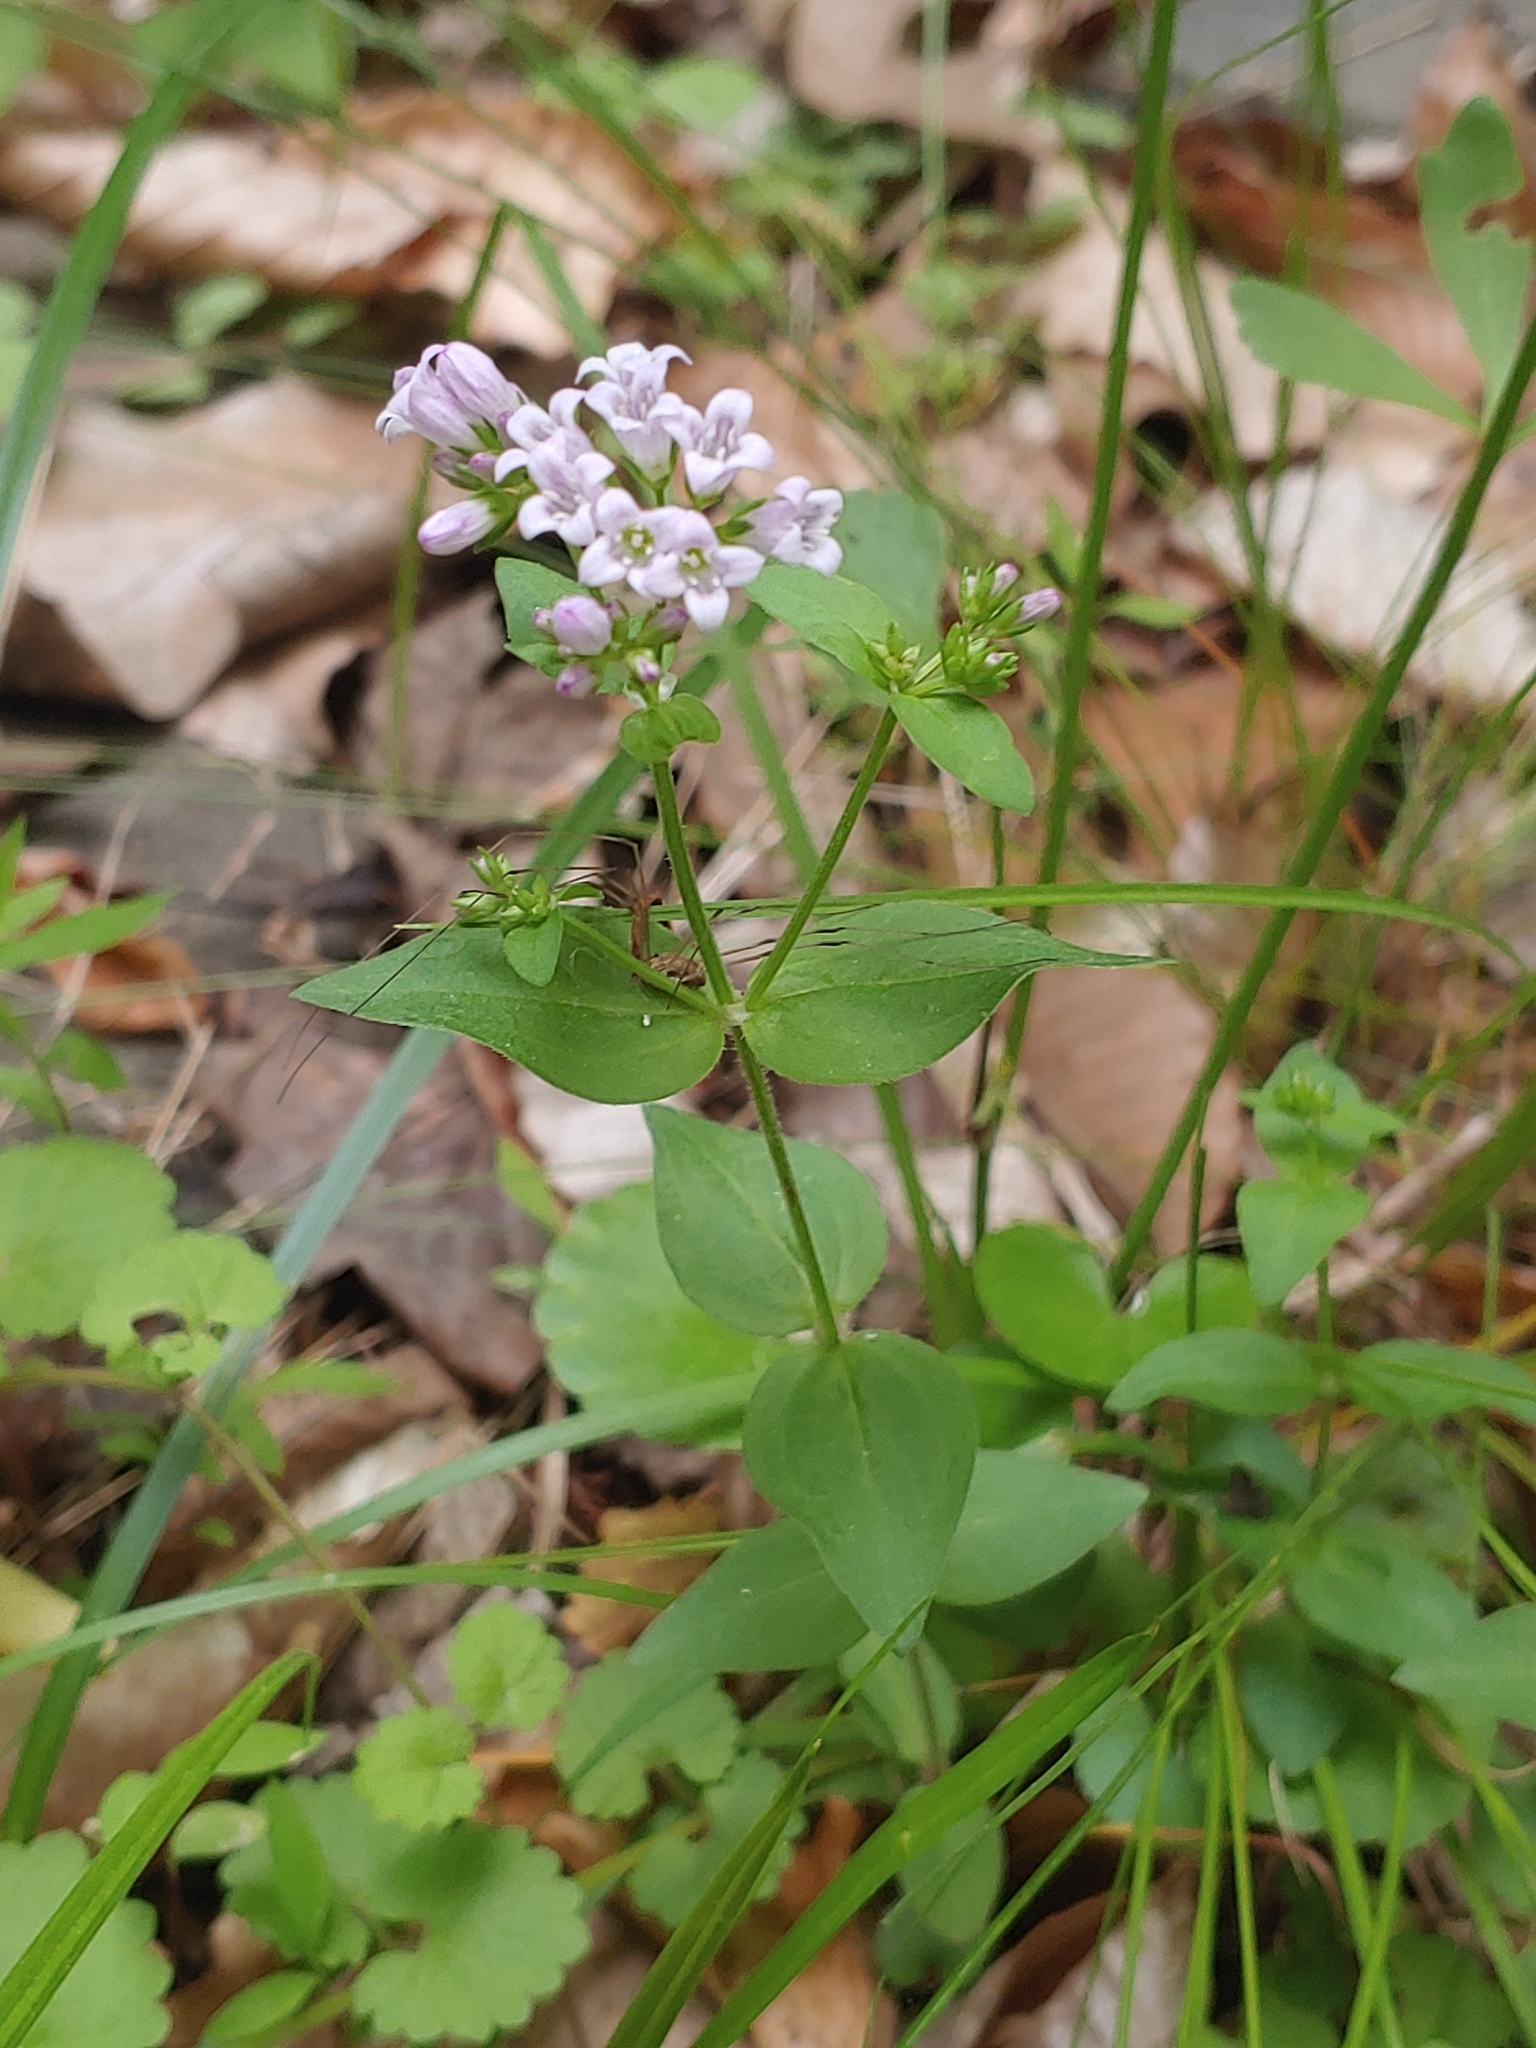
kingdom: Plantae
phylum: Tracheophyta
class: Magnoliopsida
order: Gentianales
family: Rubiaceae
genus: Houstonia
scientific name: Houstonia purpurea
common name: Summer bluet
